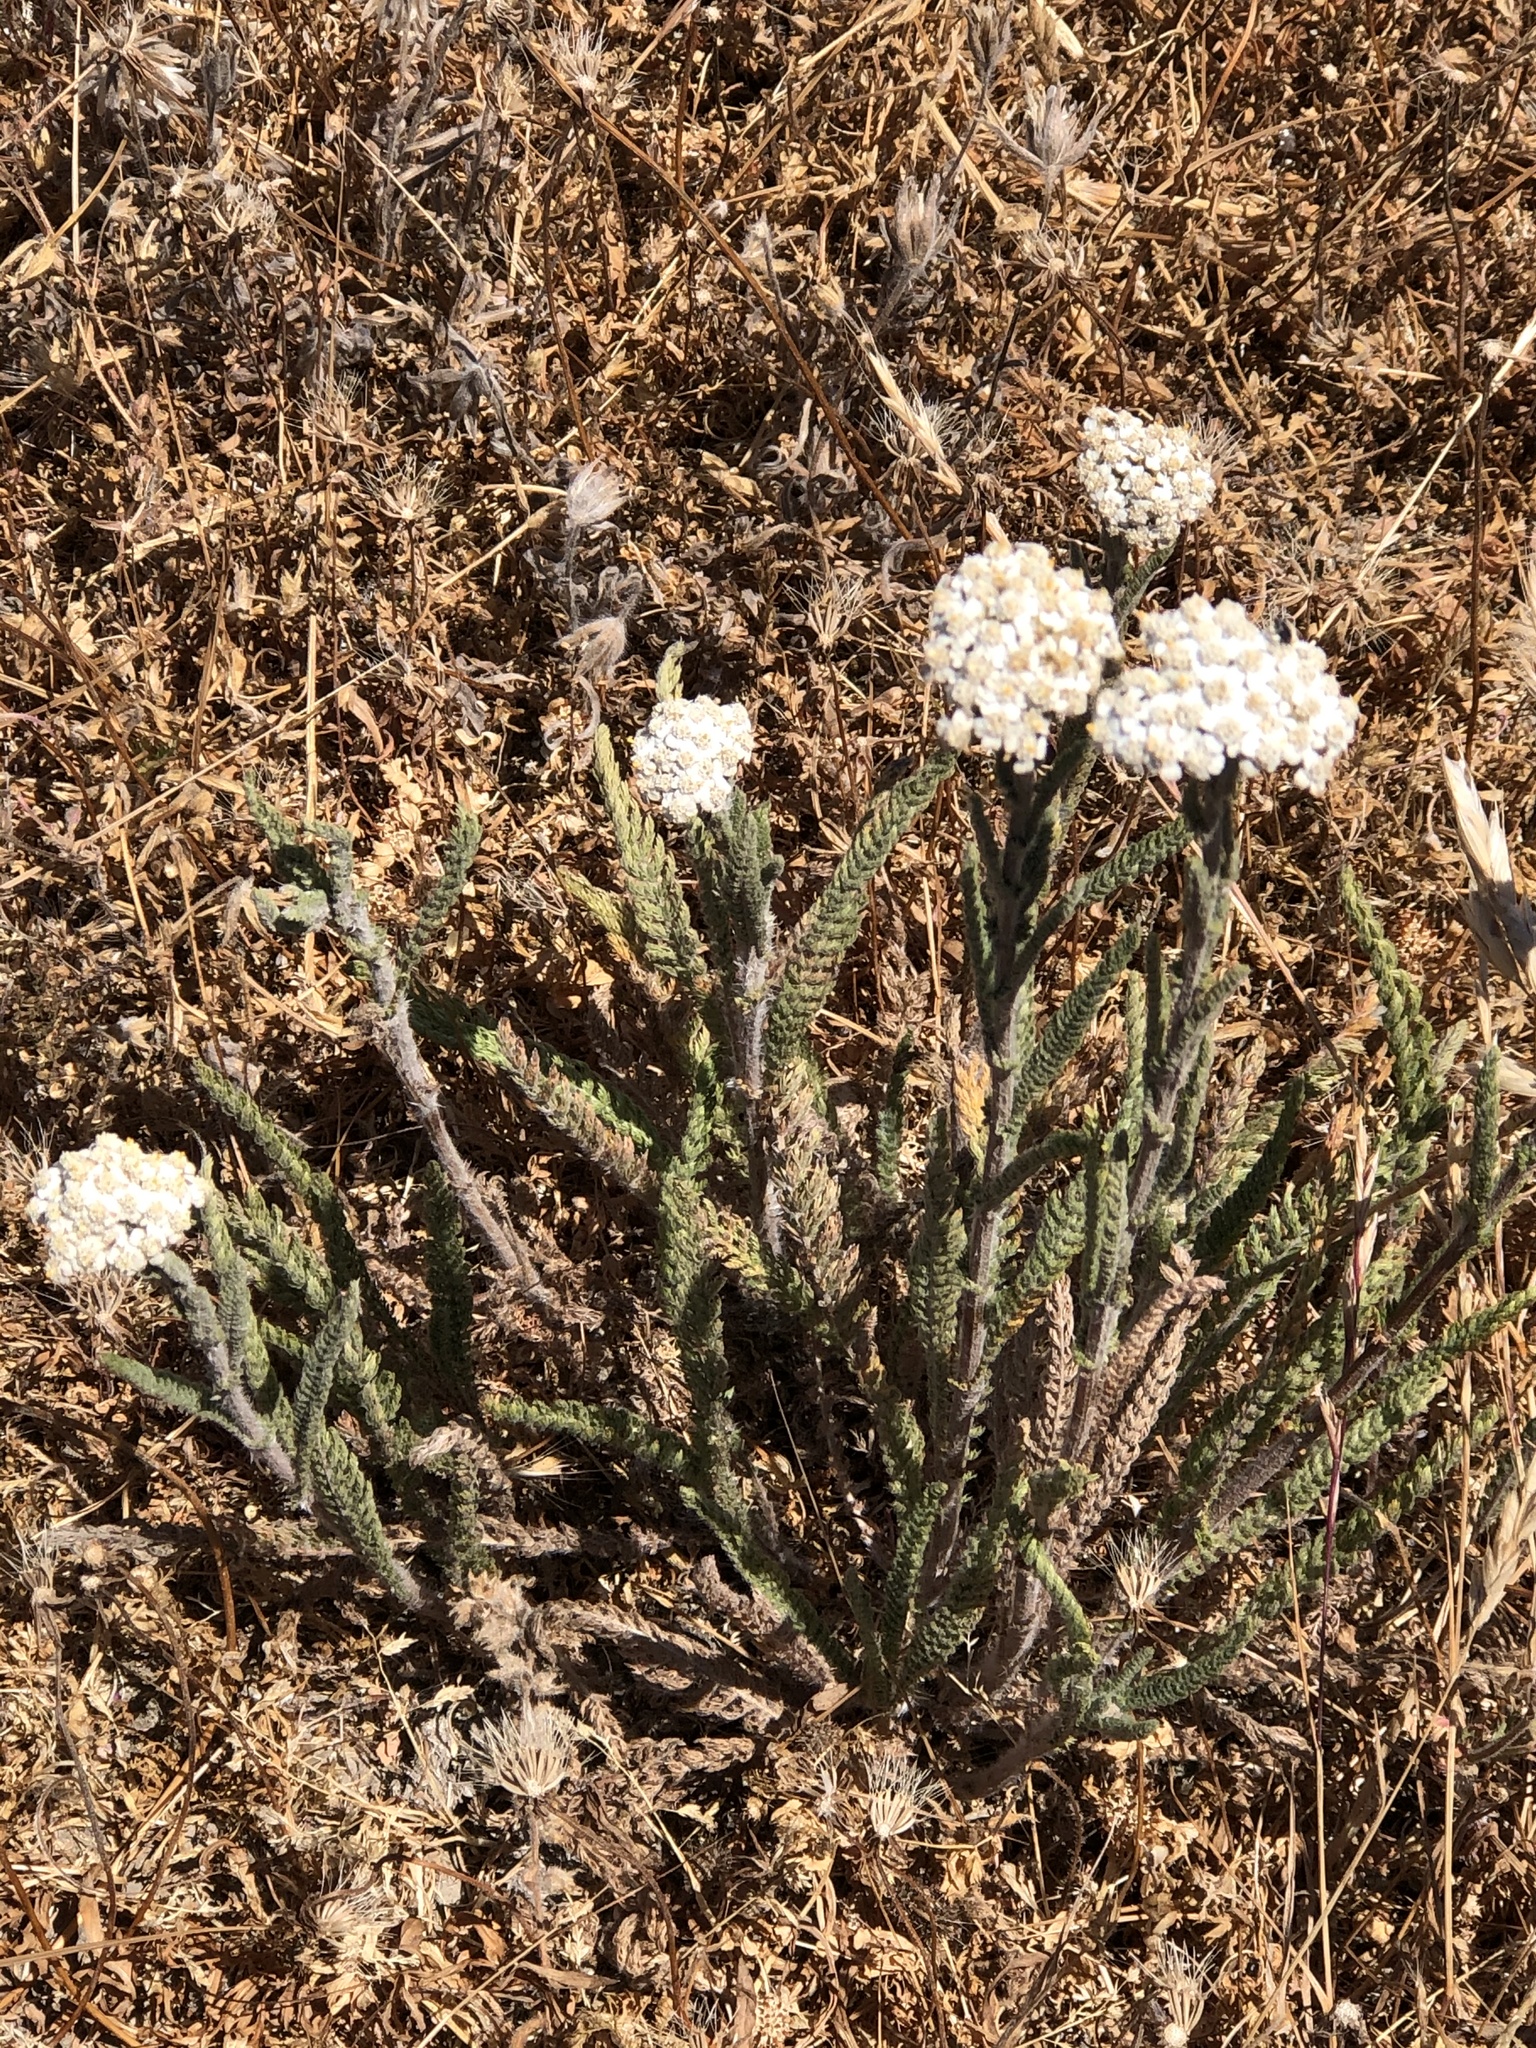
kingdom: Plantae
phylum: Tracheophyta
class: Magnoliopsida
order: Asterales
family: Asteraceae
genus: Achillea
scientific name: Achillea millefolium
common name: Yarrow
